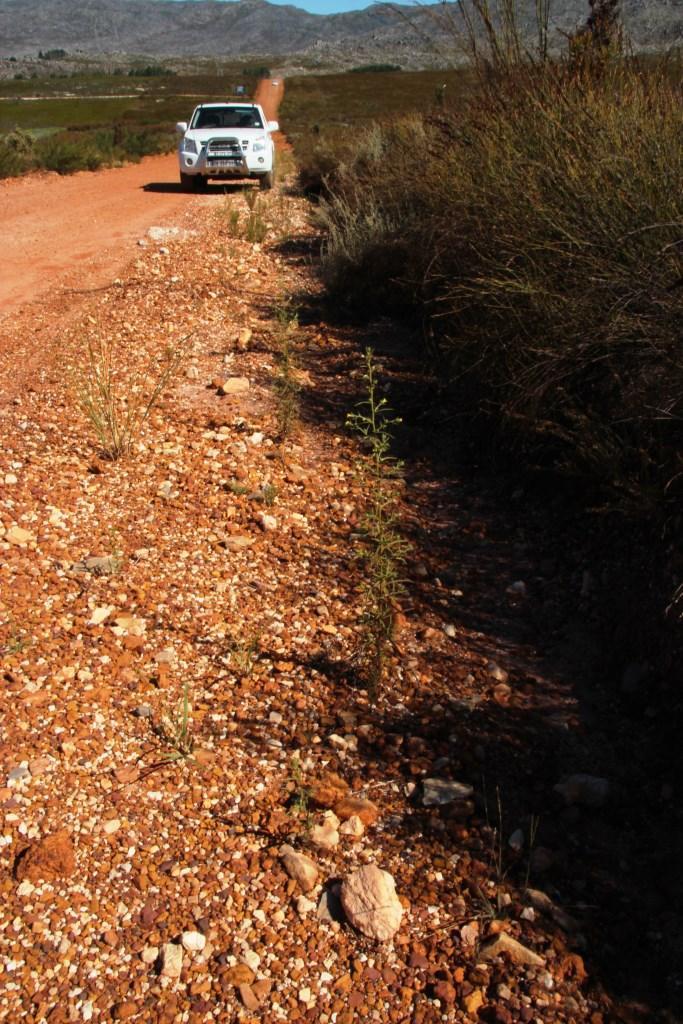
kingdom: Plantae
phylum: Tracheophyta
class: Magnoliopsida
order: Asterales
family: Asteraceae
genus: Dittrichia
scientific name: Dittrichia graveolens
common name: Stinking fleabane
